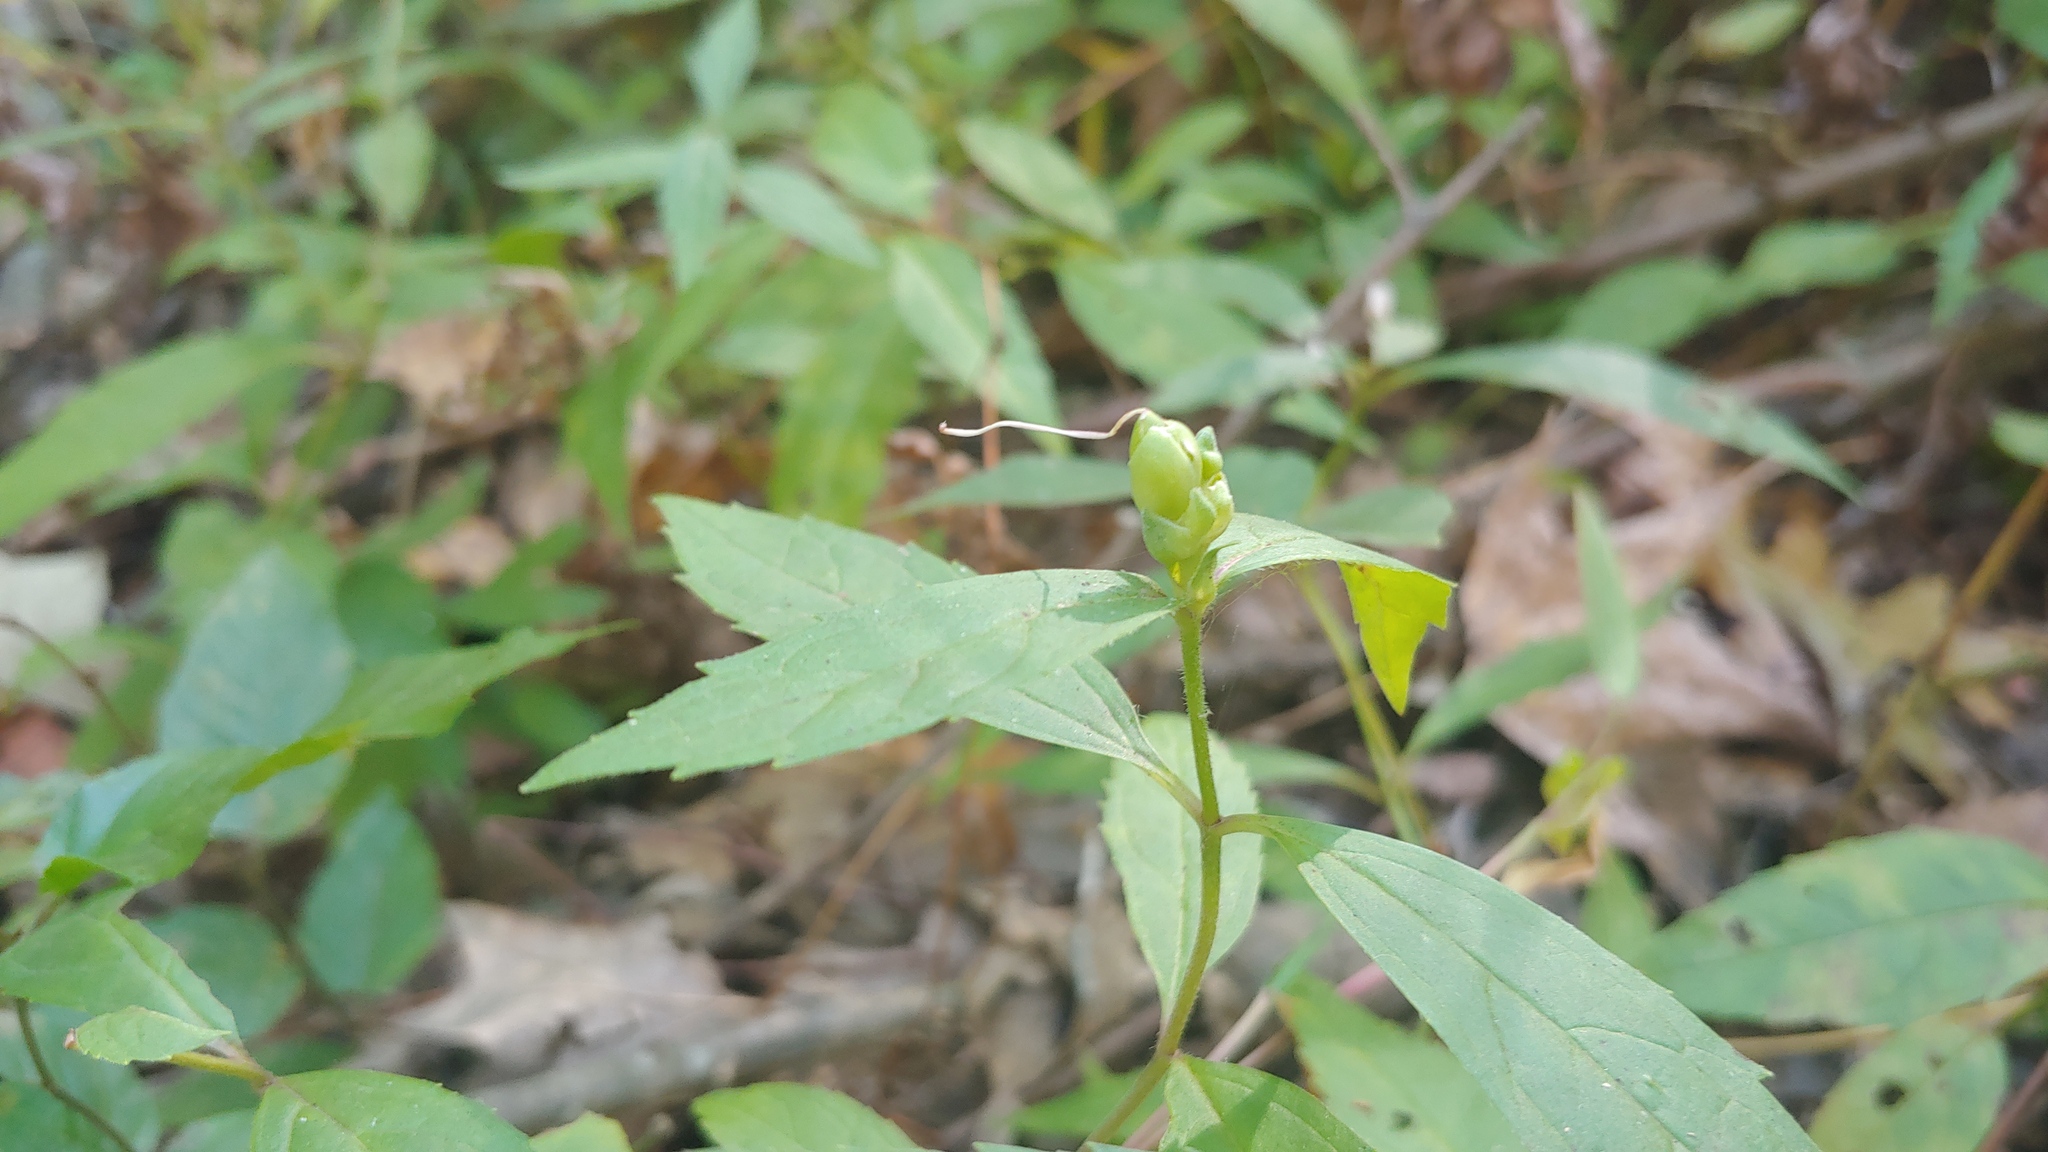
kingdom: Plantae
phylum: Tracheophyta
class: Magnoliopsida
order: Lamiales
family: Plantaginaceae
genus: Chelone
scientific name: Chelone obliqua
